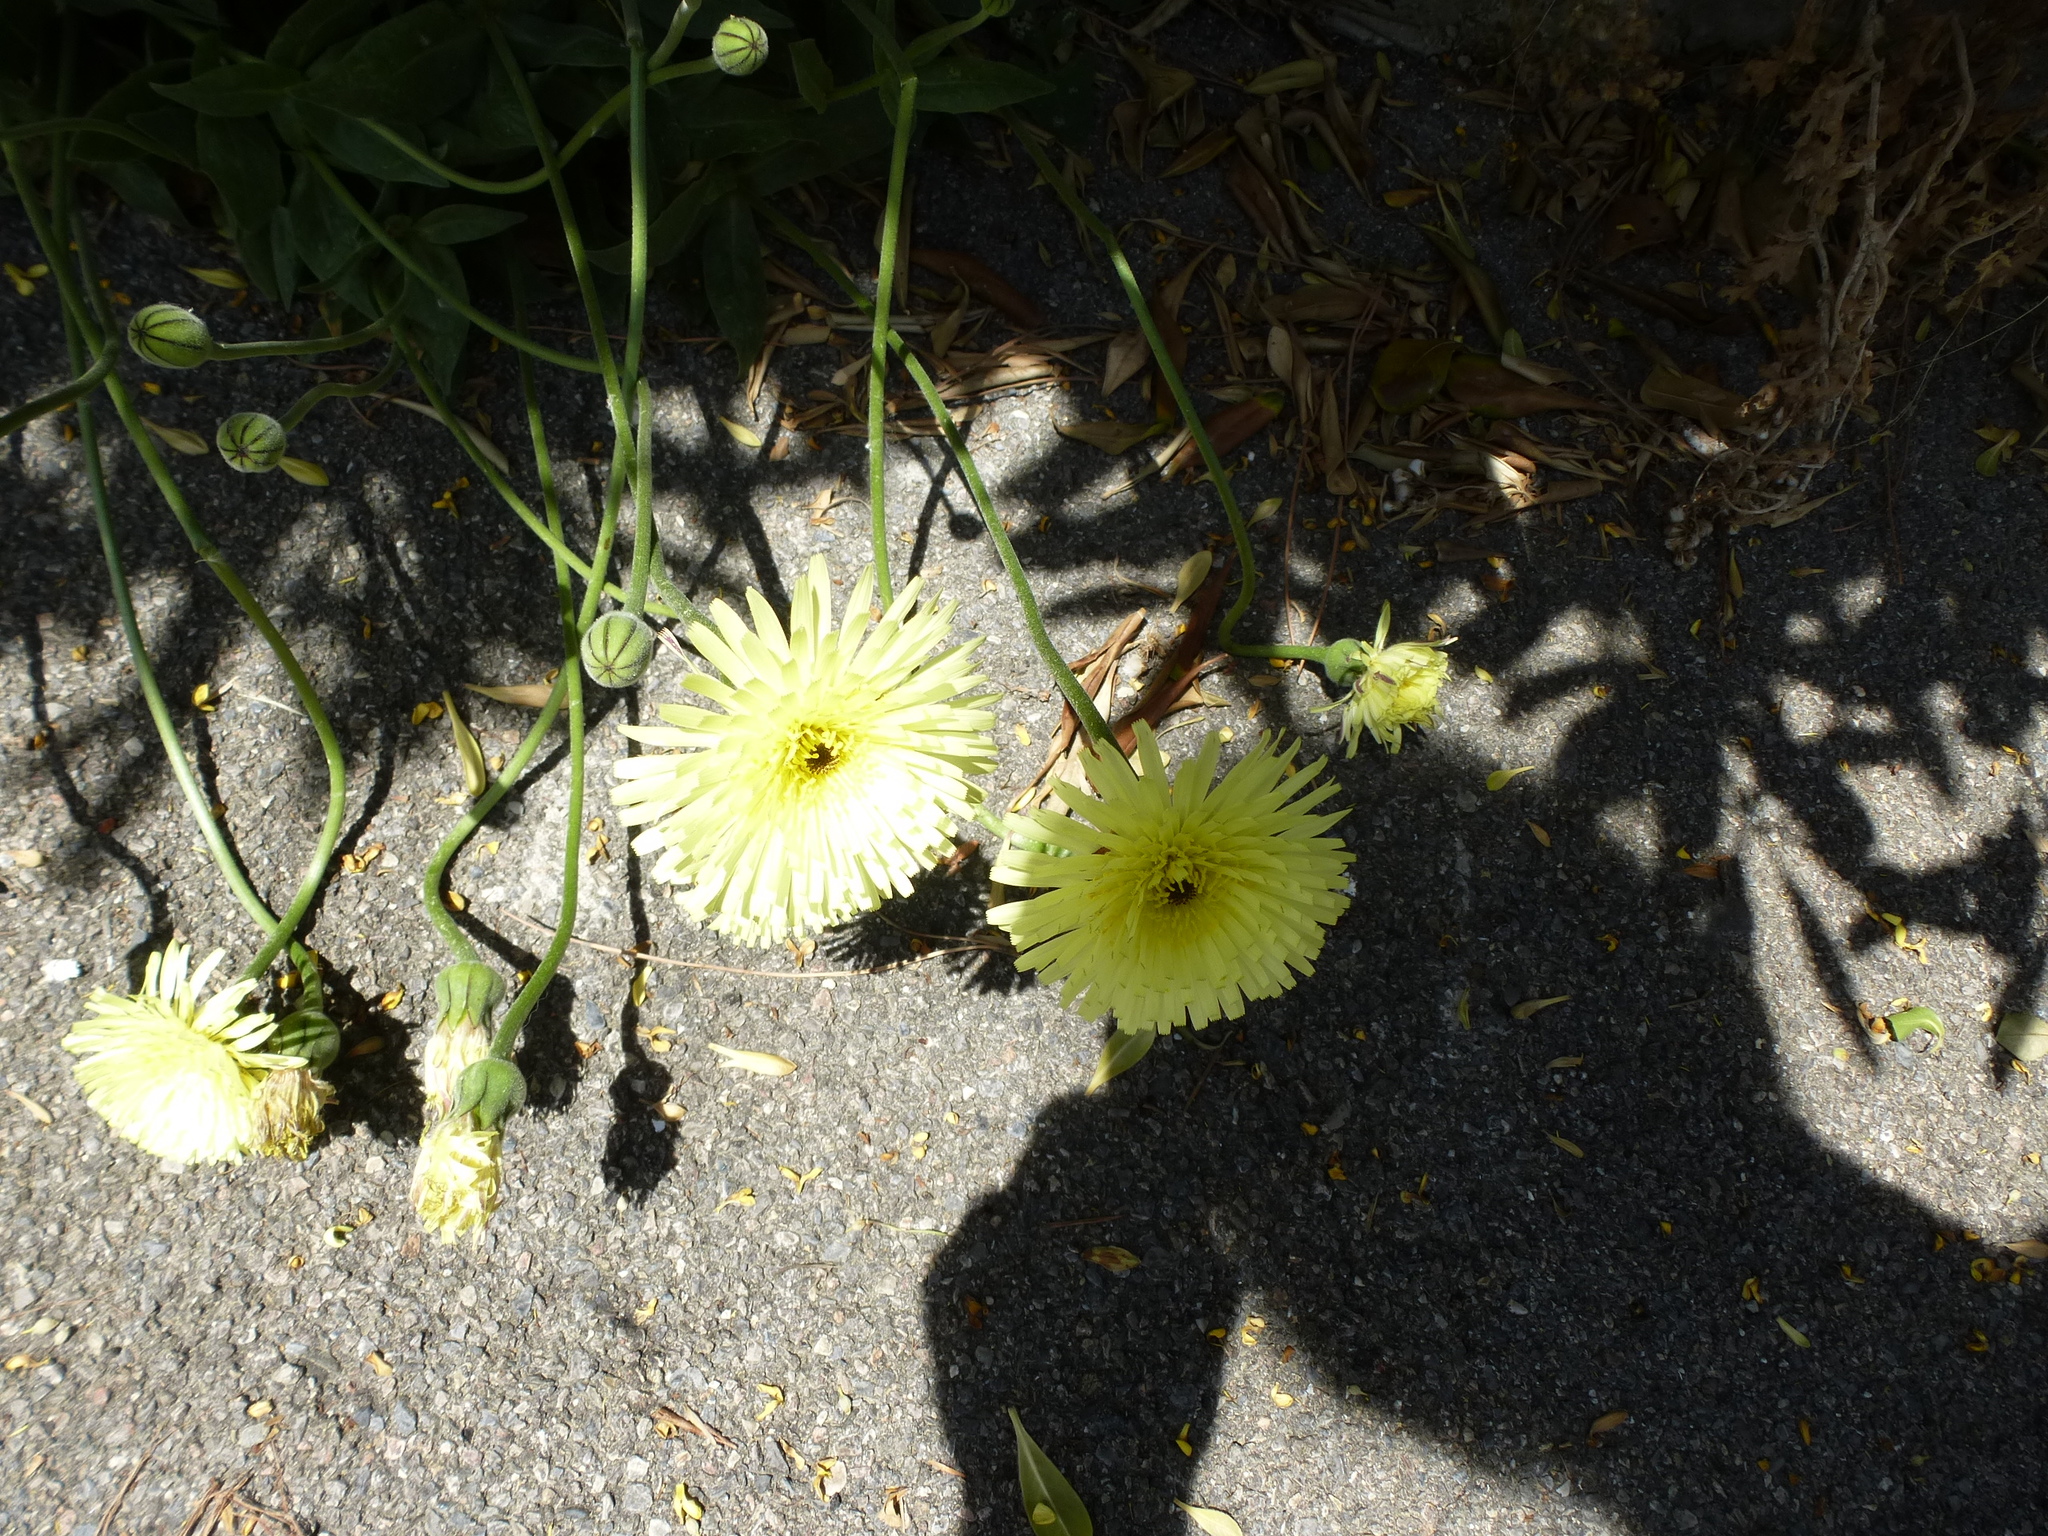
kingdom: Plantae
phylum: Tracheophyta
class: Magnoliopsida
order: Asterales
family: Asteraceae
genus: Urospermum
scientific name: Urospermum dalechampii
